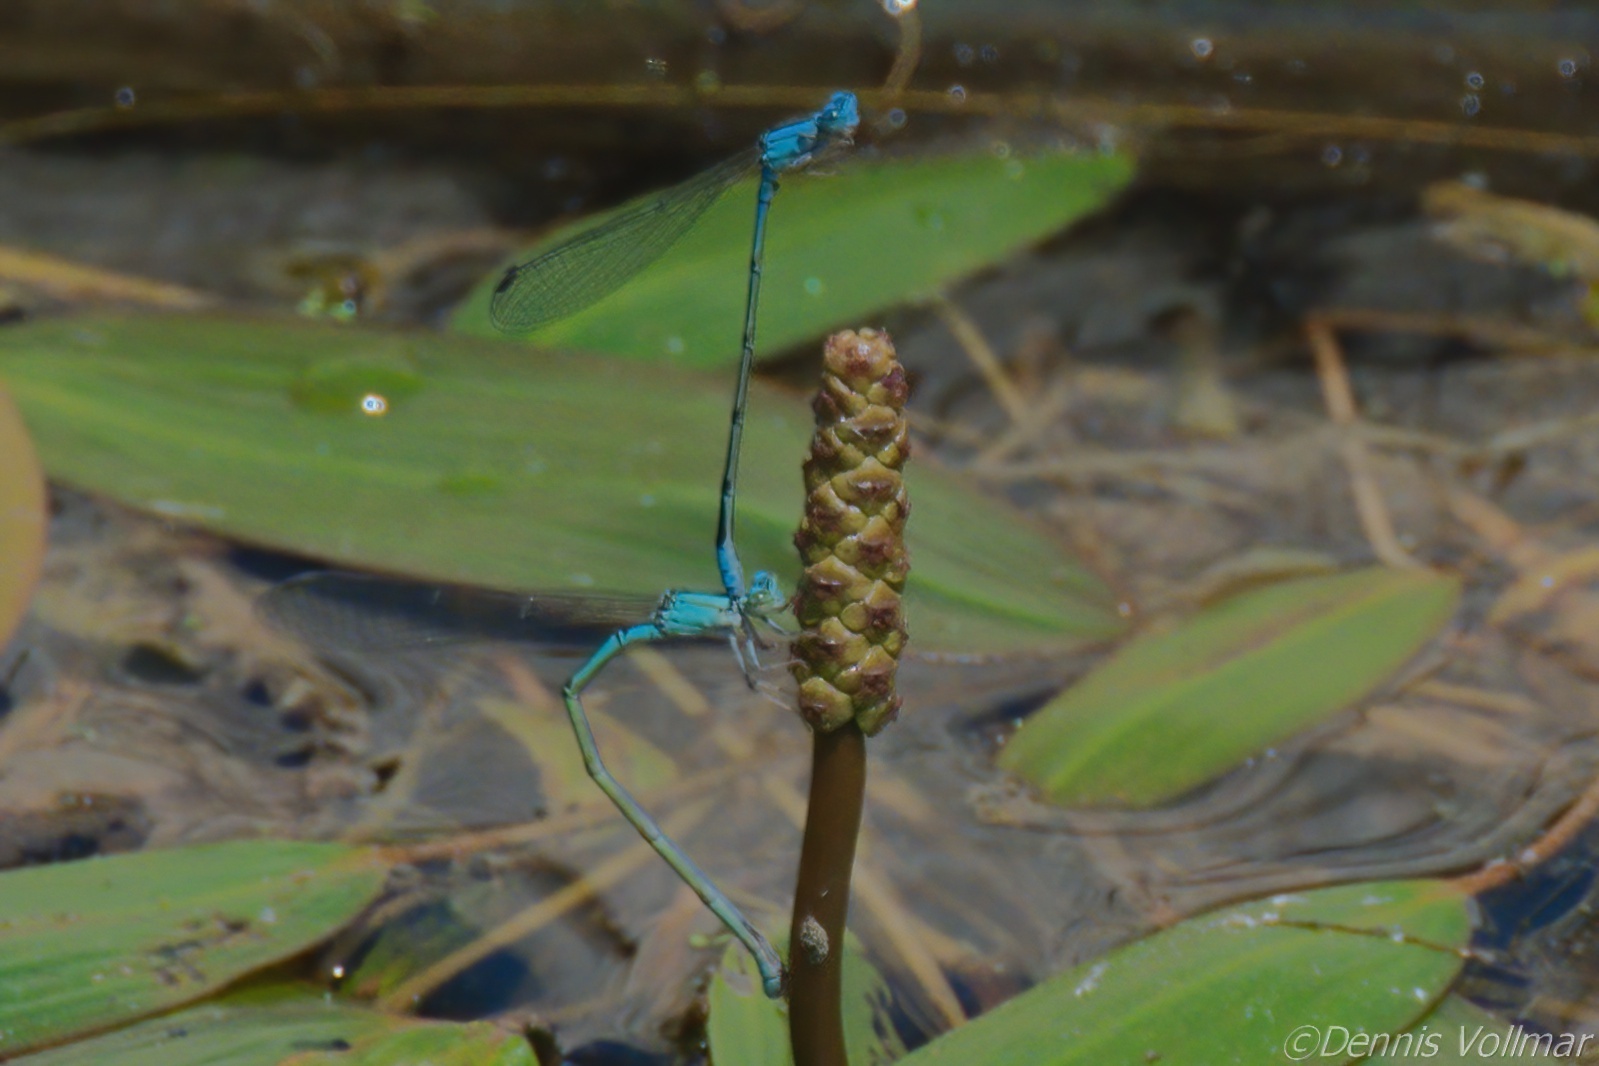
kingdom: Animalia
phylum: Arthropoda
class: Insecta
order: Odonata
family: Coenagrionidae
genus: Enallagma
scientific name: Enallagma traviatum
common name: Slender bluet
